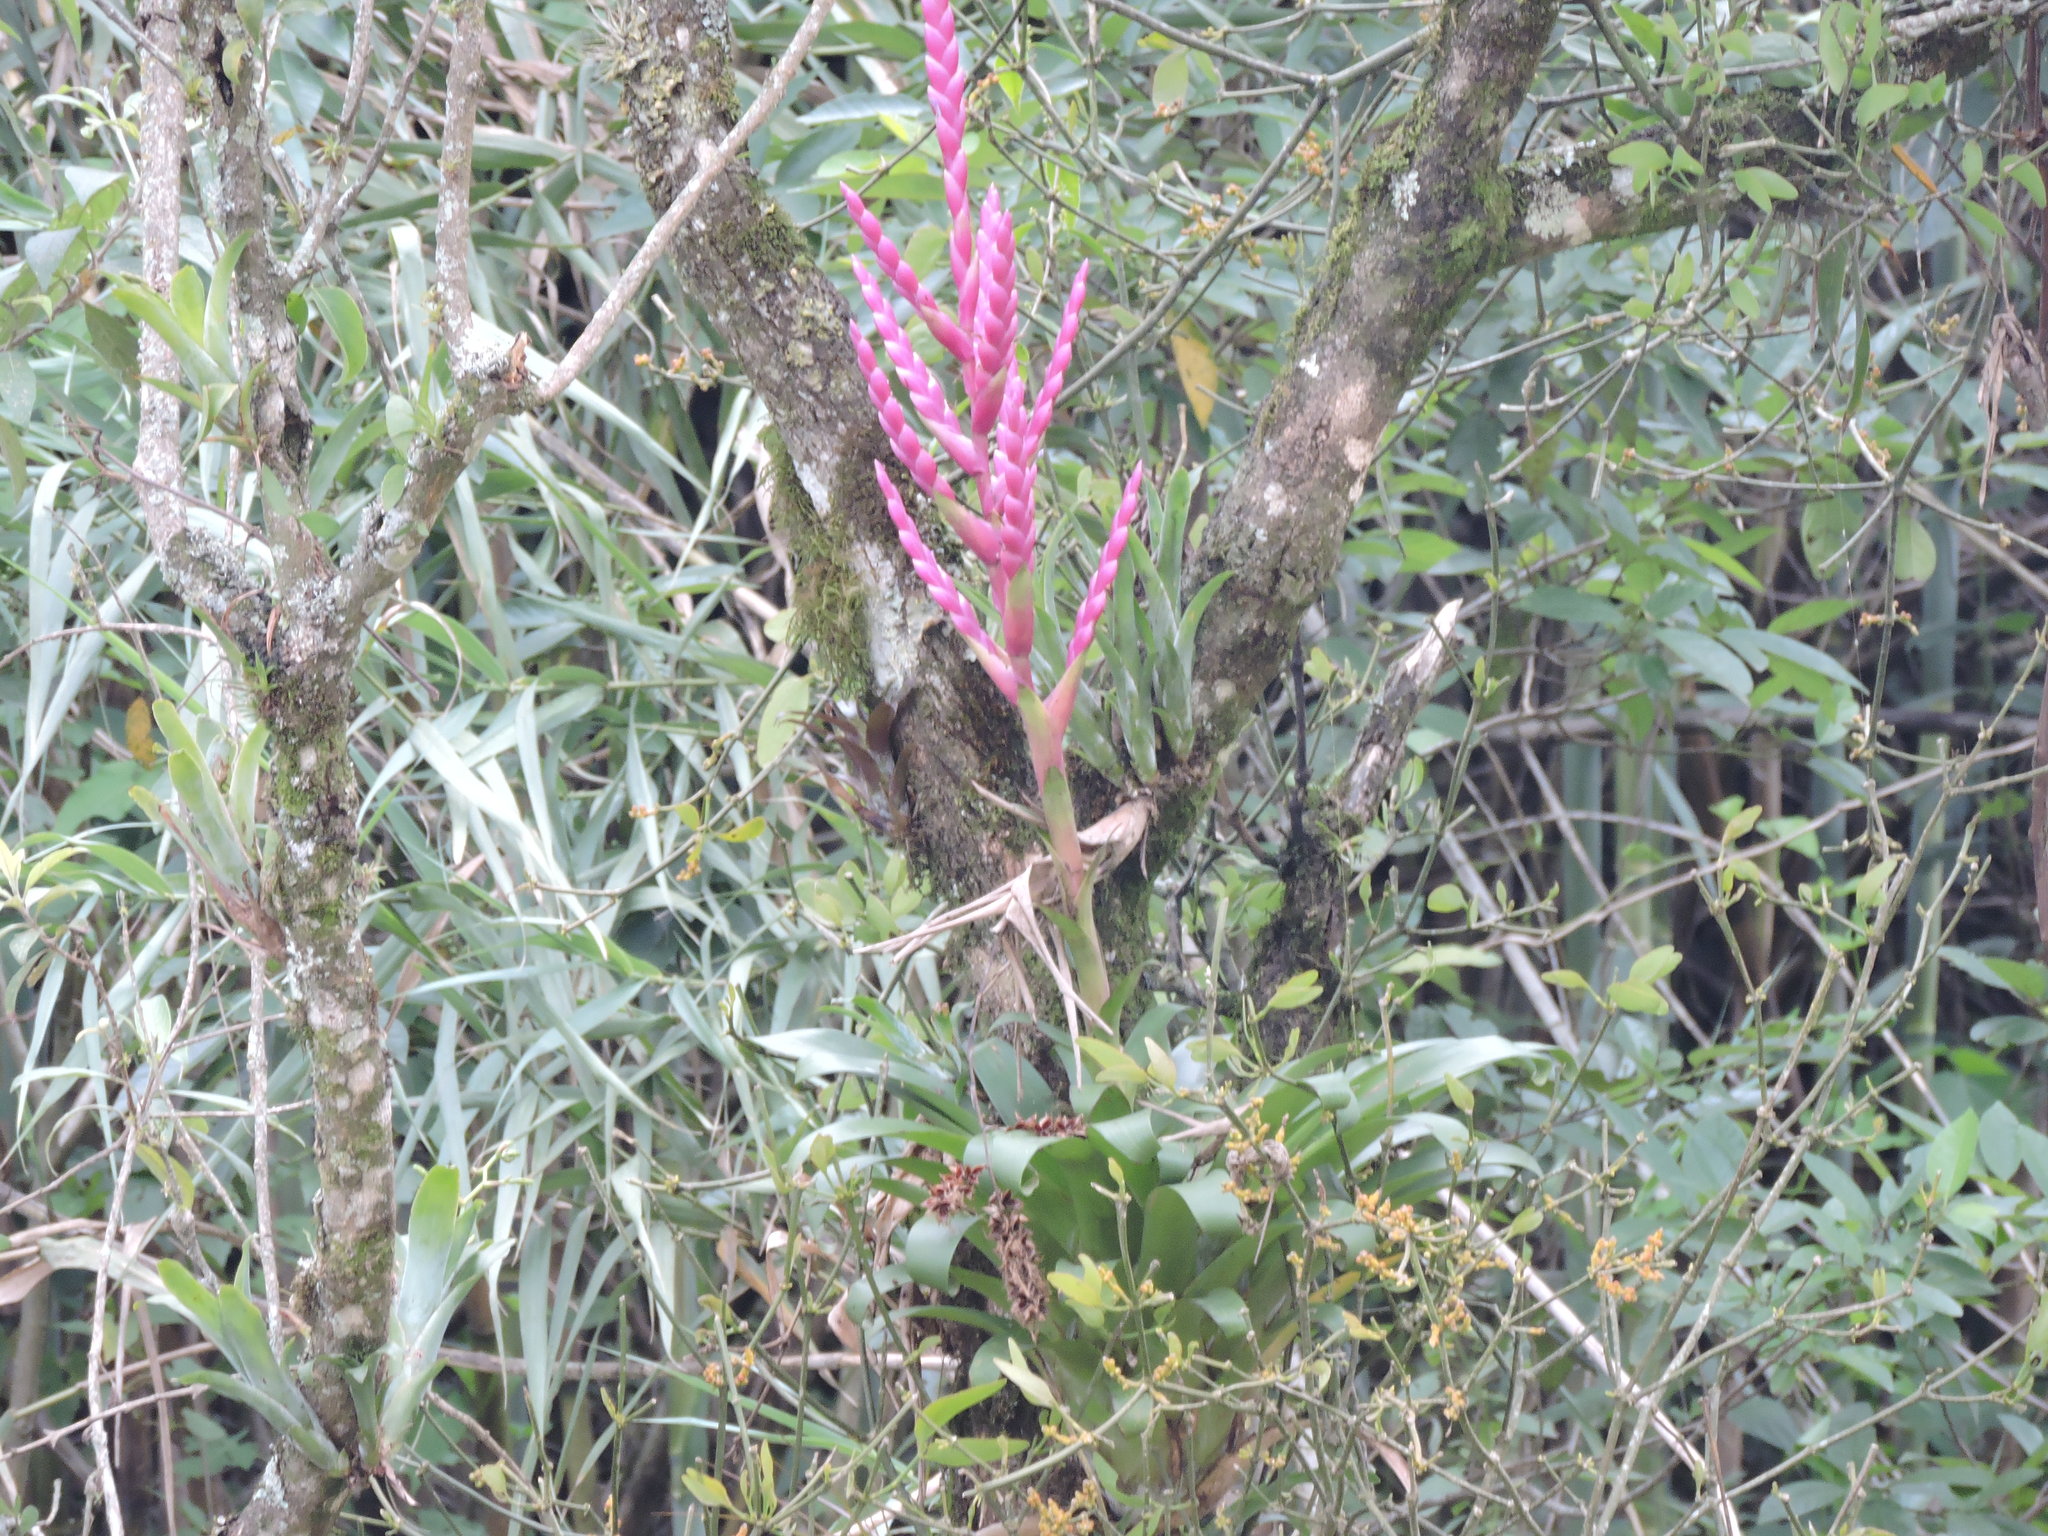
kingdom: Plantae
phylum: Tracheophyta
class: Liliopsida
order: Poales
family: Bromeliaceae
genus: Tillandsia
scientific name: Tillandsia lucida
